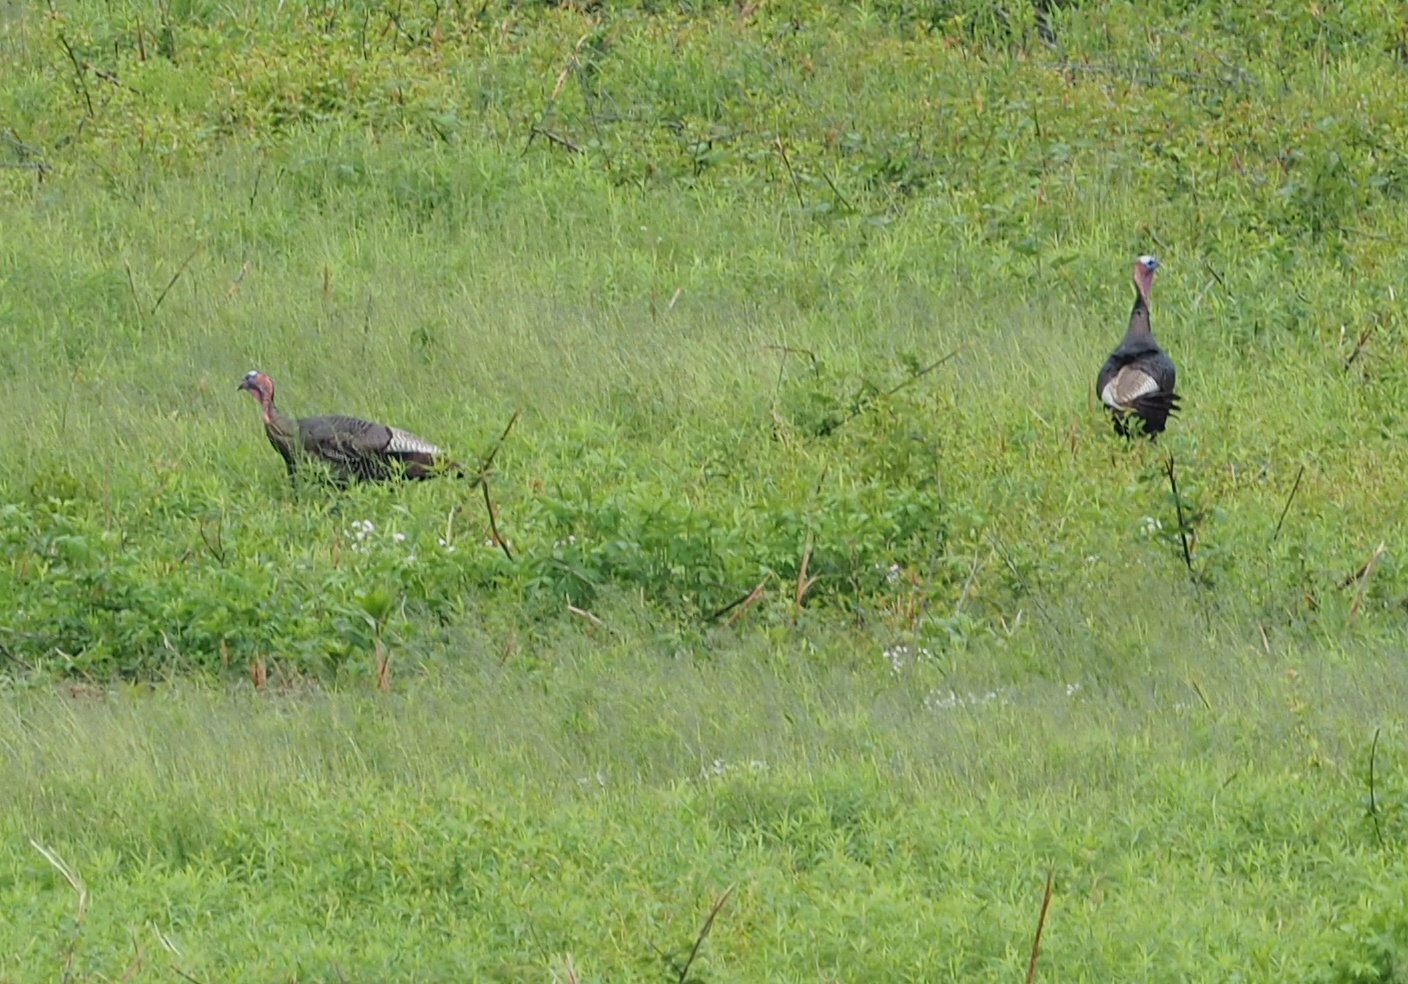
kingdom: Animalia
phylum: Chordata
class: Aves
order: Galliformes
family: Phasianidae
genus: Meleagris
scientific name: Meleagris gallopavo
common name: Wild turkey
